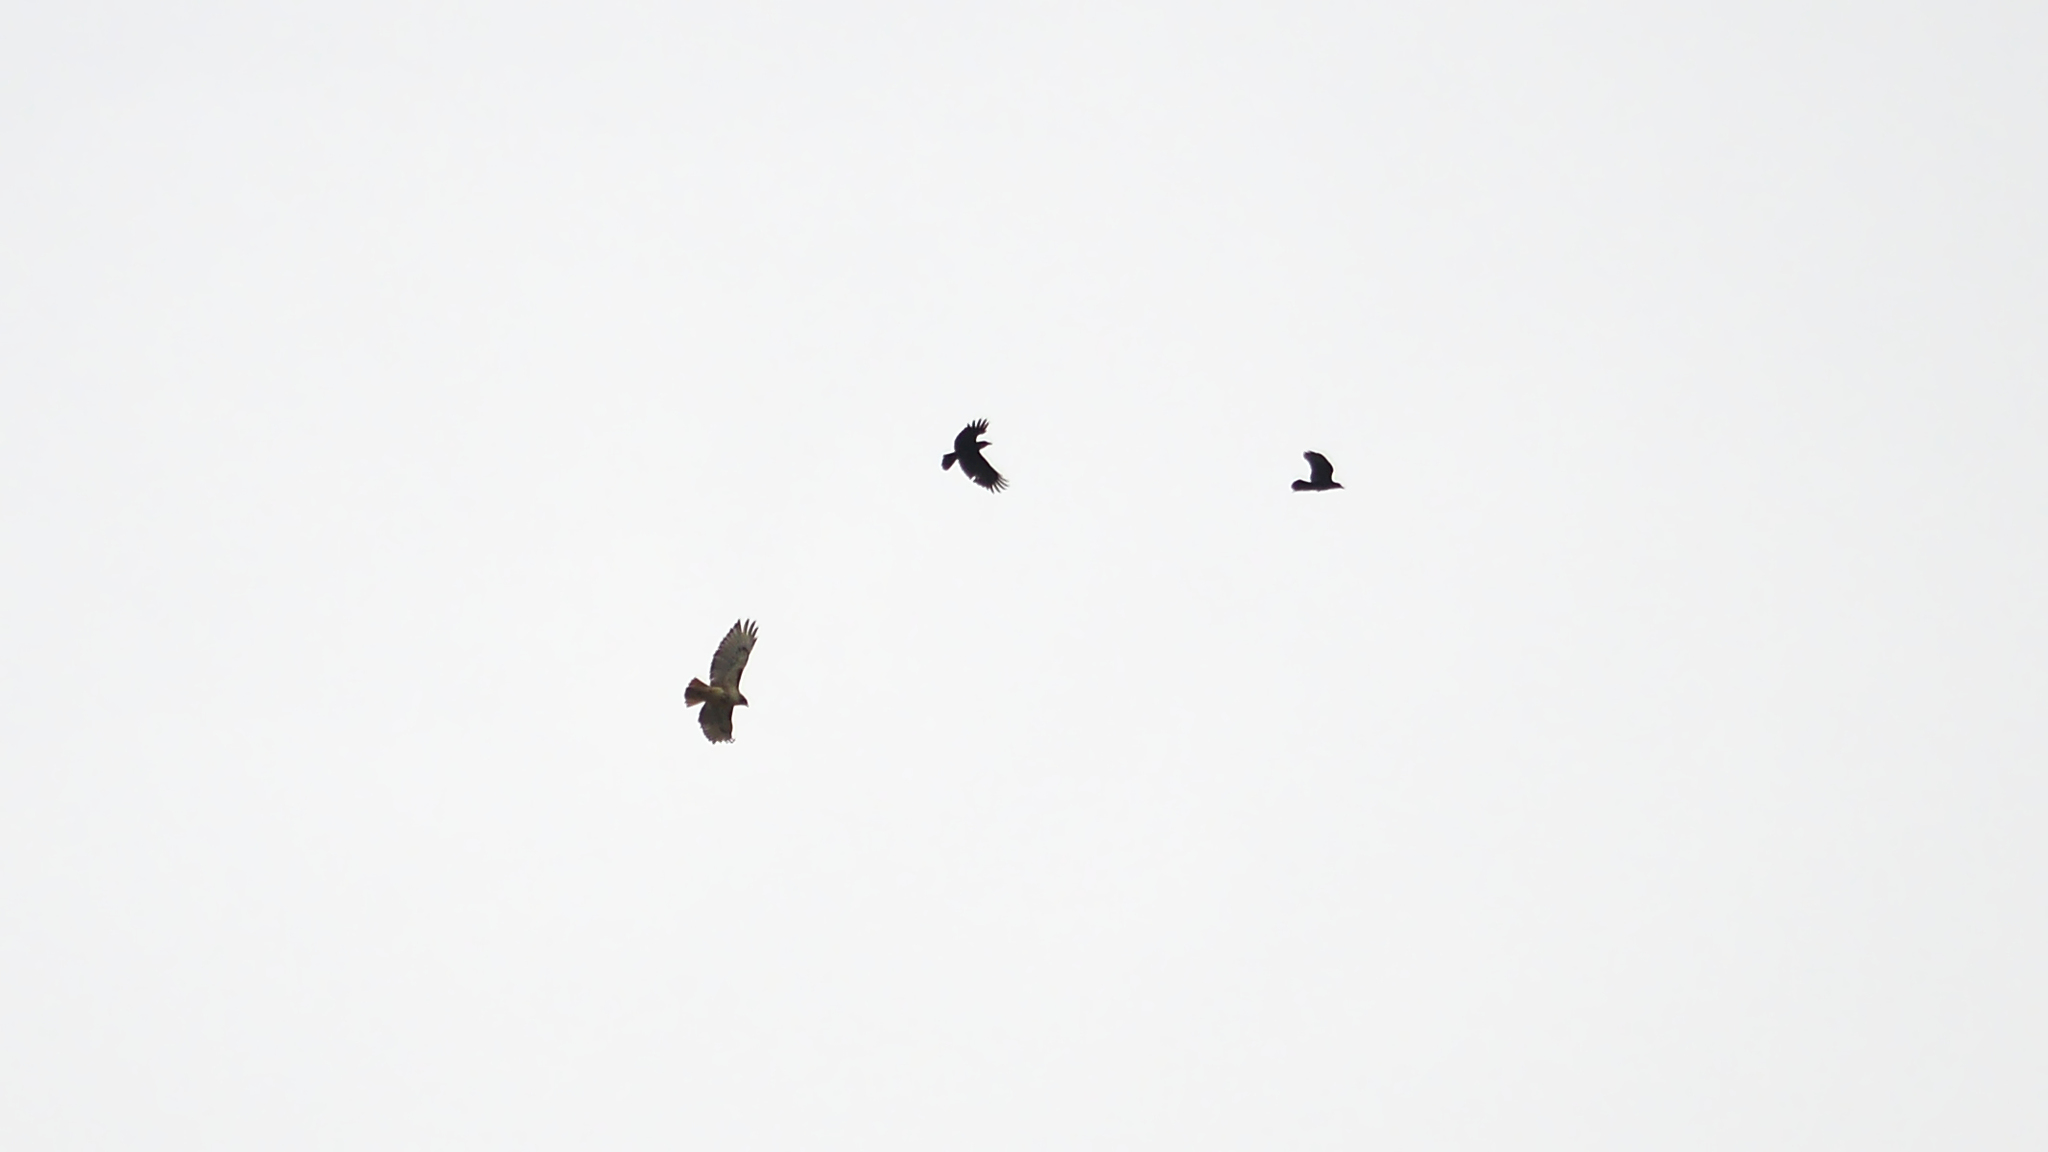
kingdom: Animalia
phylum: Chordata
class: Aves
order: Accipitriformes
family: Accipitridae
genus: Buteo
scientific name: Buteo jamaicensis
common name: Red-tailed hawk
